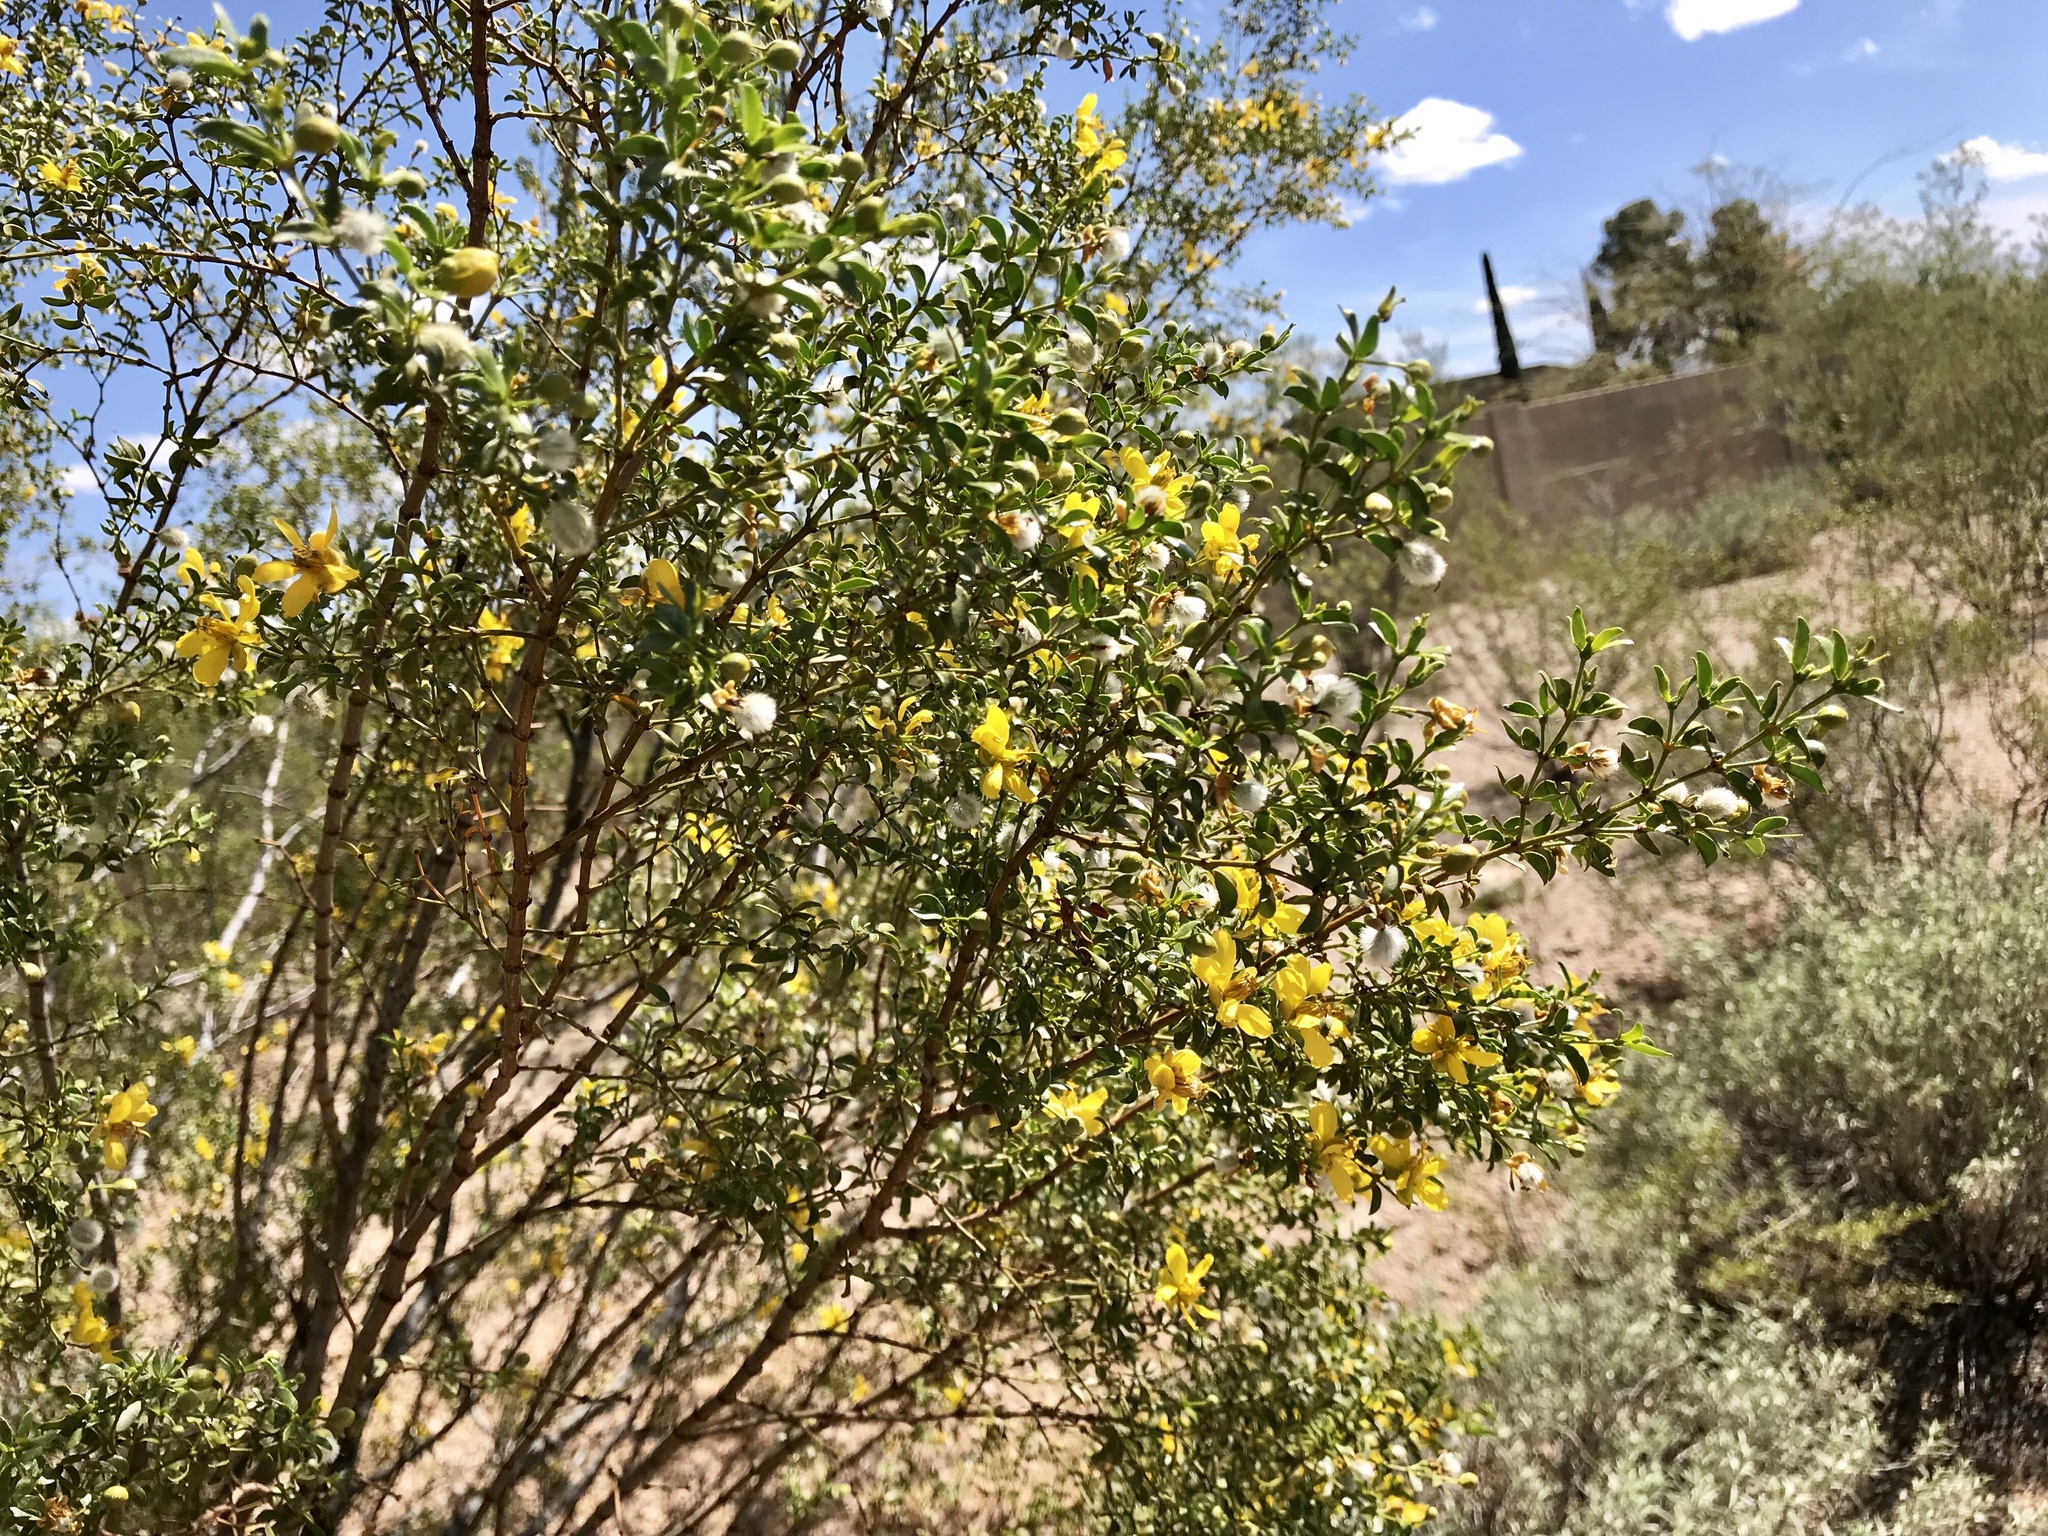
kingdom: Plantae
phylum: Tracheophyta
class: Magnoliopsida
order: Zygophyllales
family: Zygophyllaceae
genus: Larrea
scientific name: Larrea tridentata
